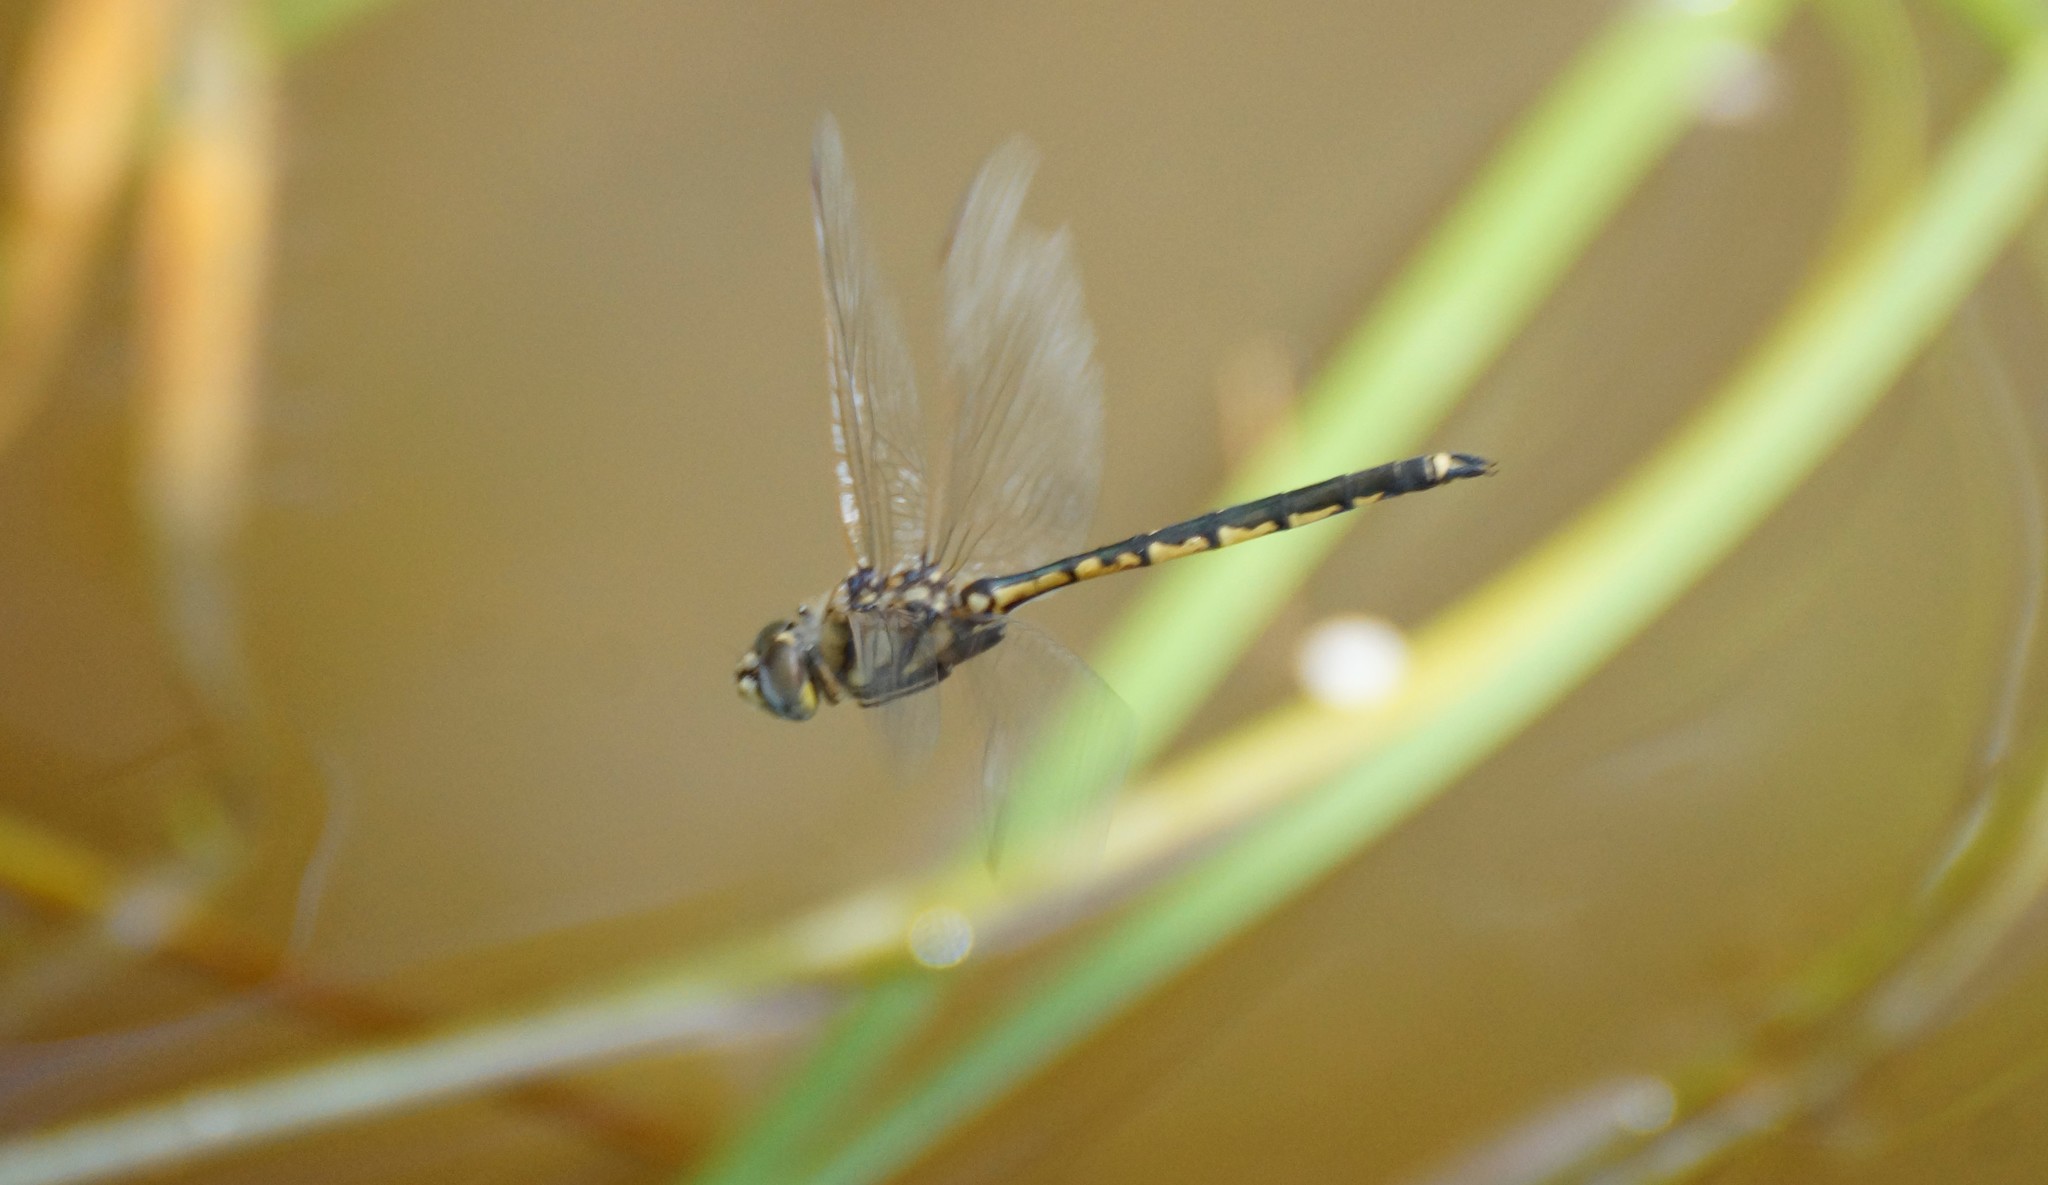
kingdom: Animalia
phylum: Arthropoda
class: Insecta
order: Odonata
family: Corduliidae
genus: Hemicordulia
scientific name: Hemicordulia tau
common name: Tau emerald
